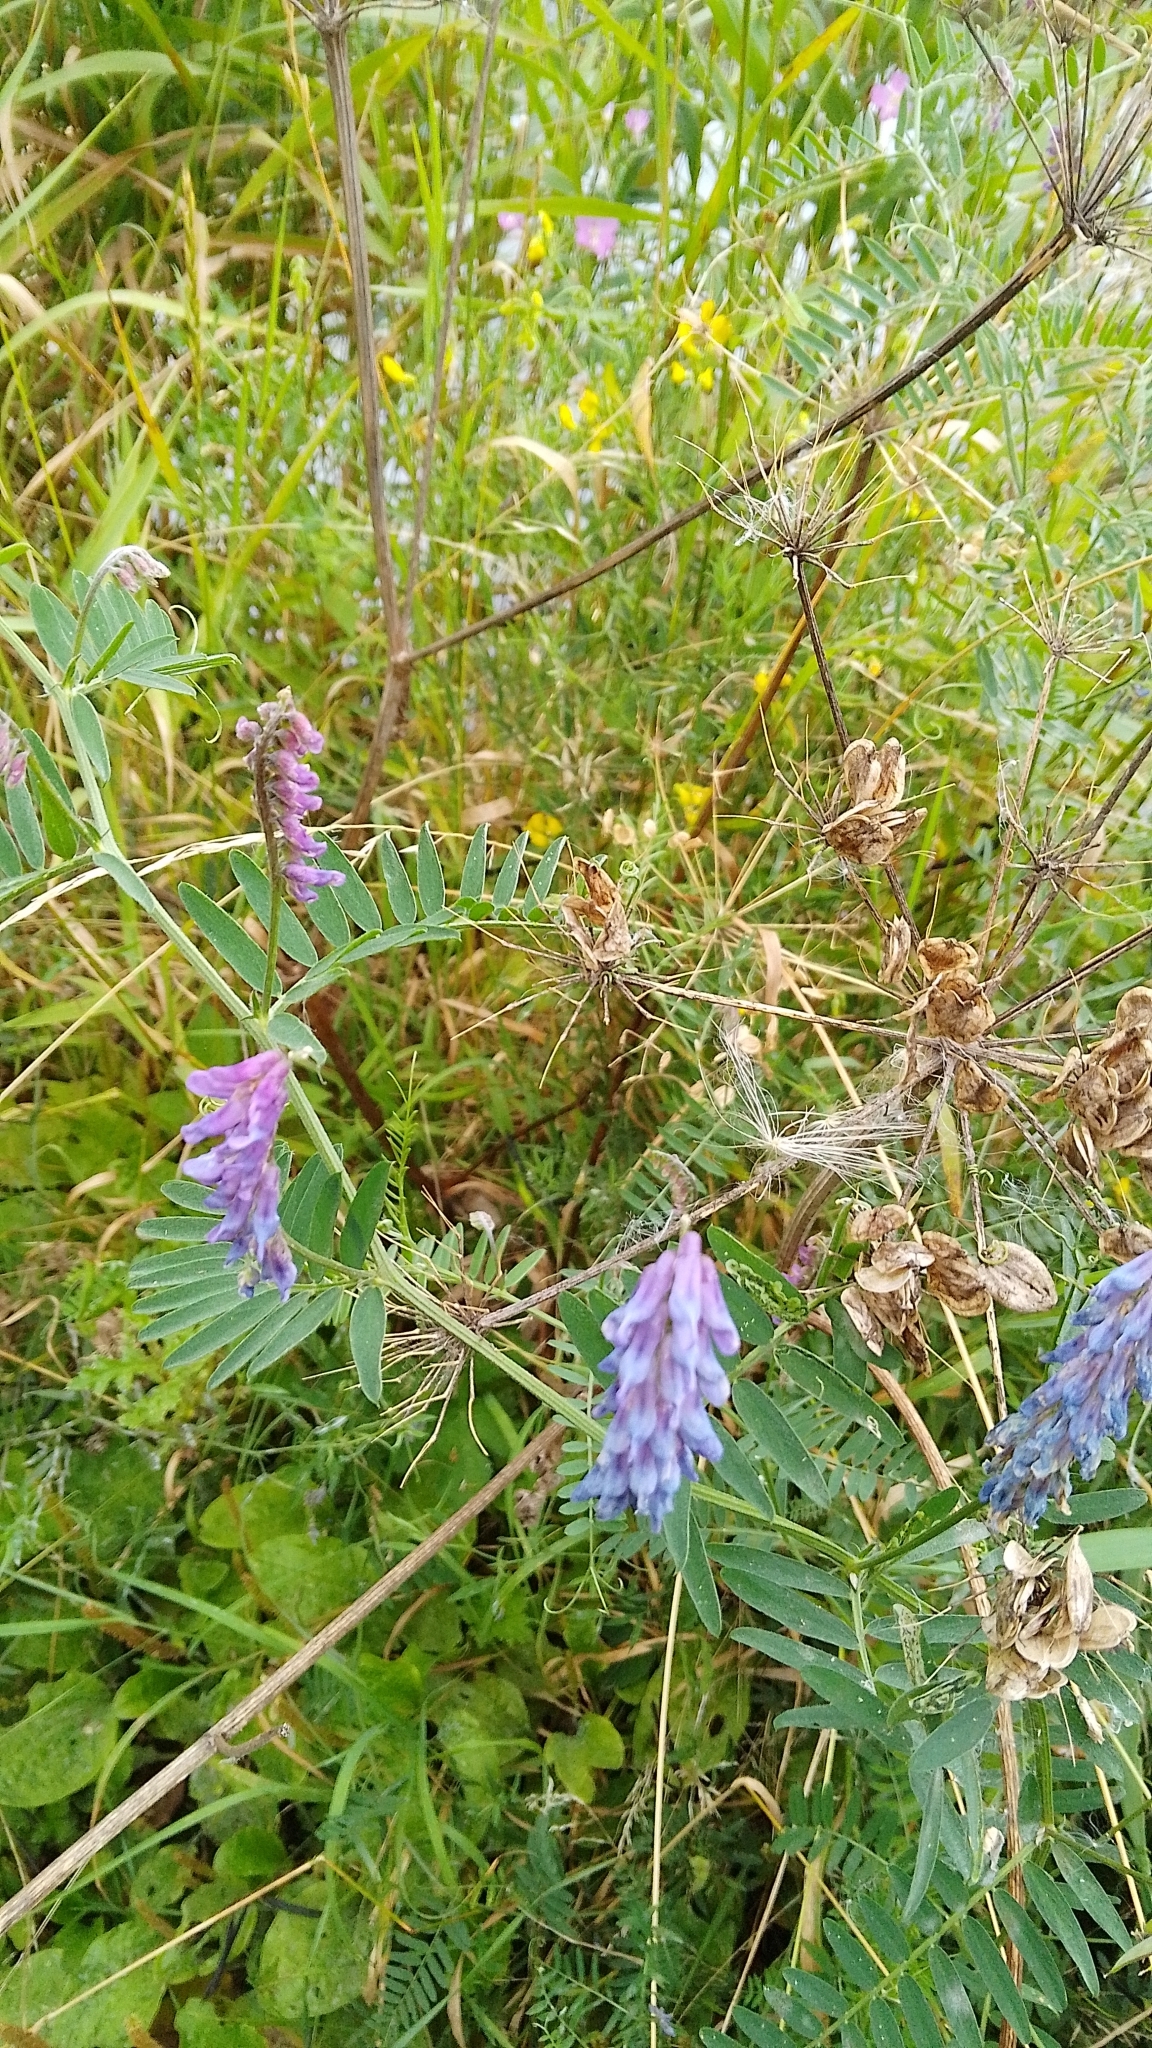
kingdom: Plantae
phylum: Tracheophyta
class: Magnoliopsida
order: Fabales
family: Fabaceae
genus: Vicia
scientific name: Vicia cracca
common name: Bird vetch
